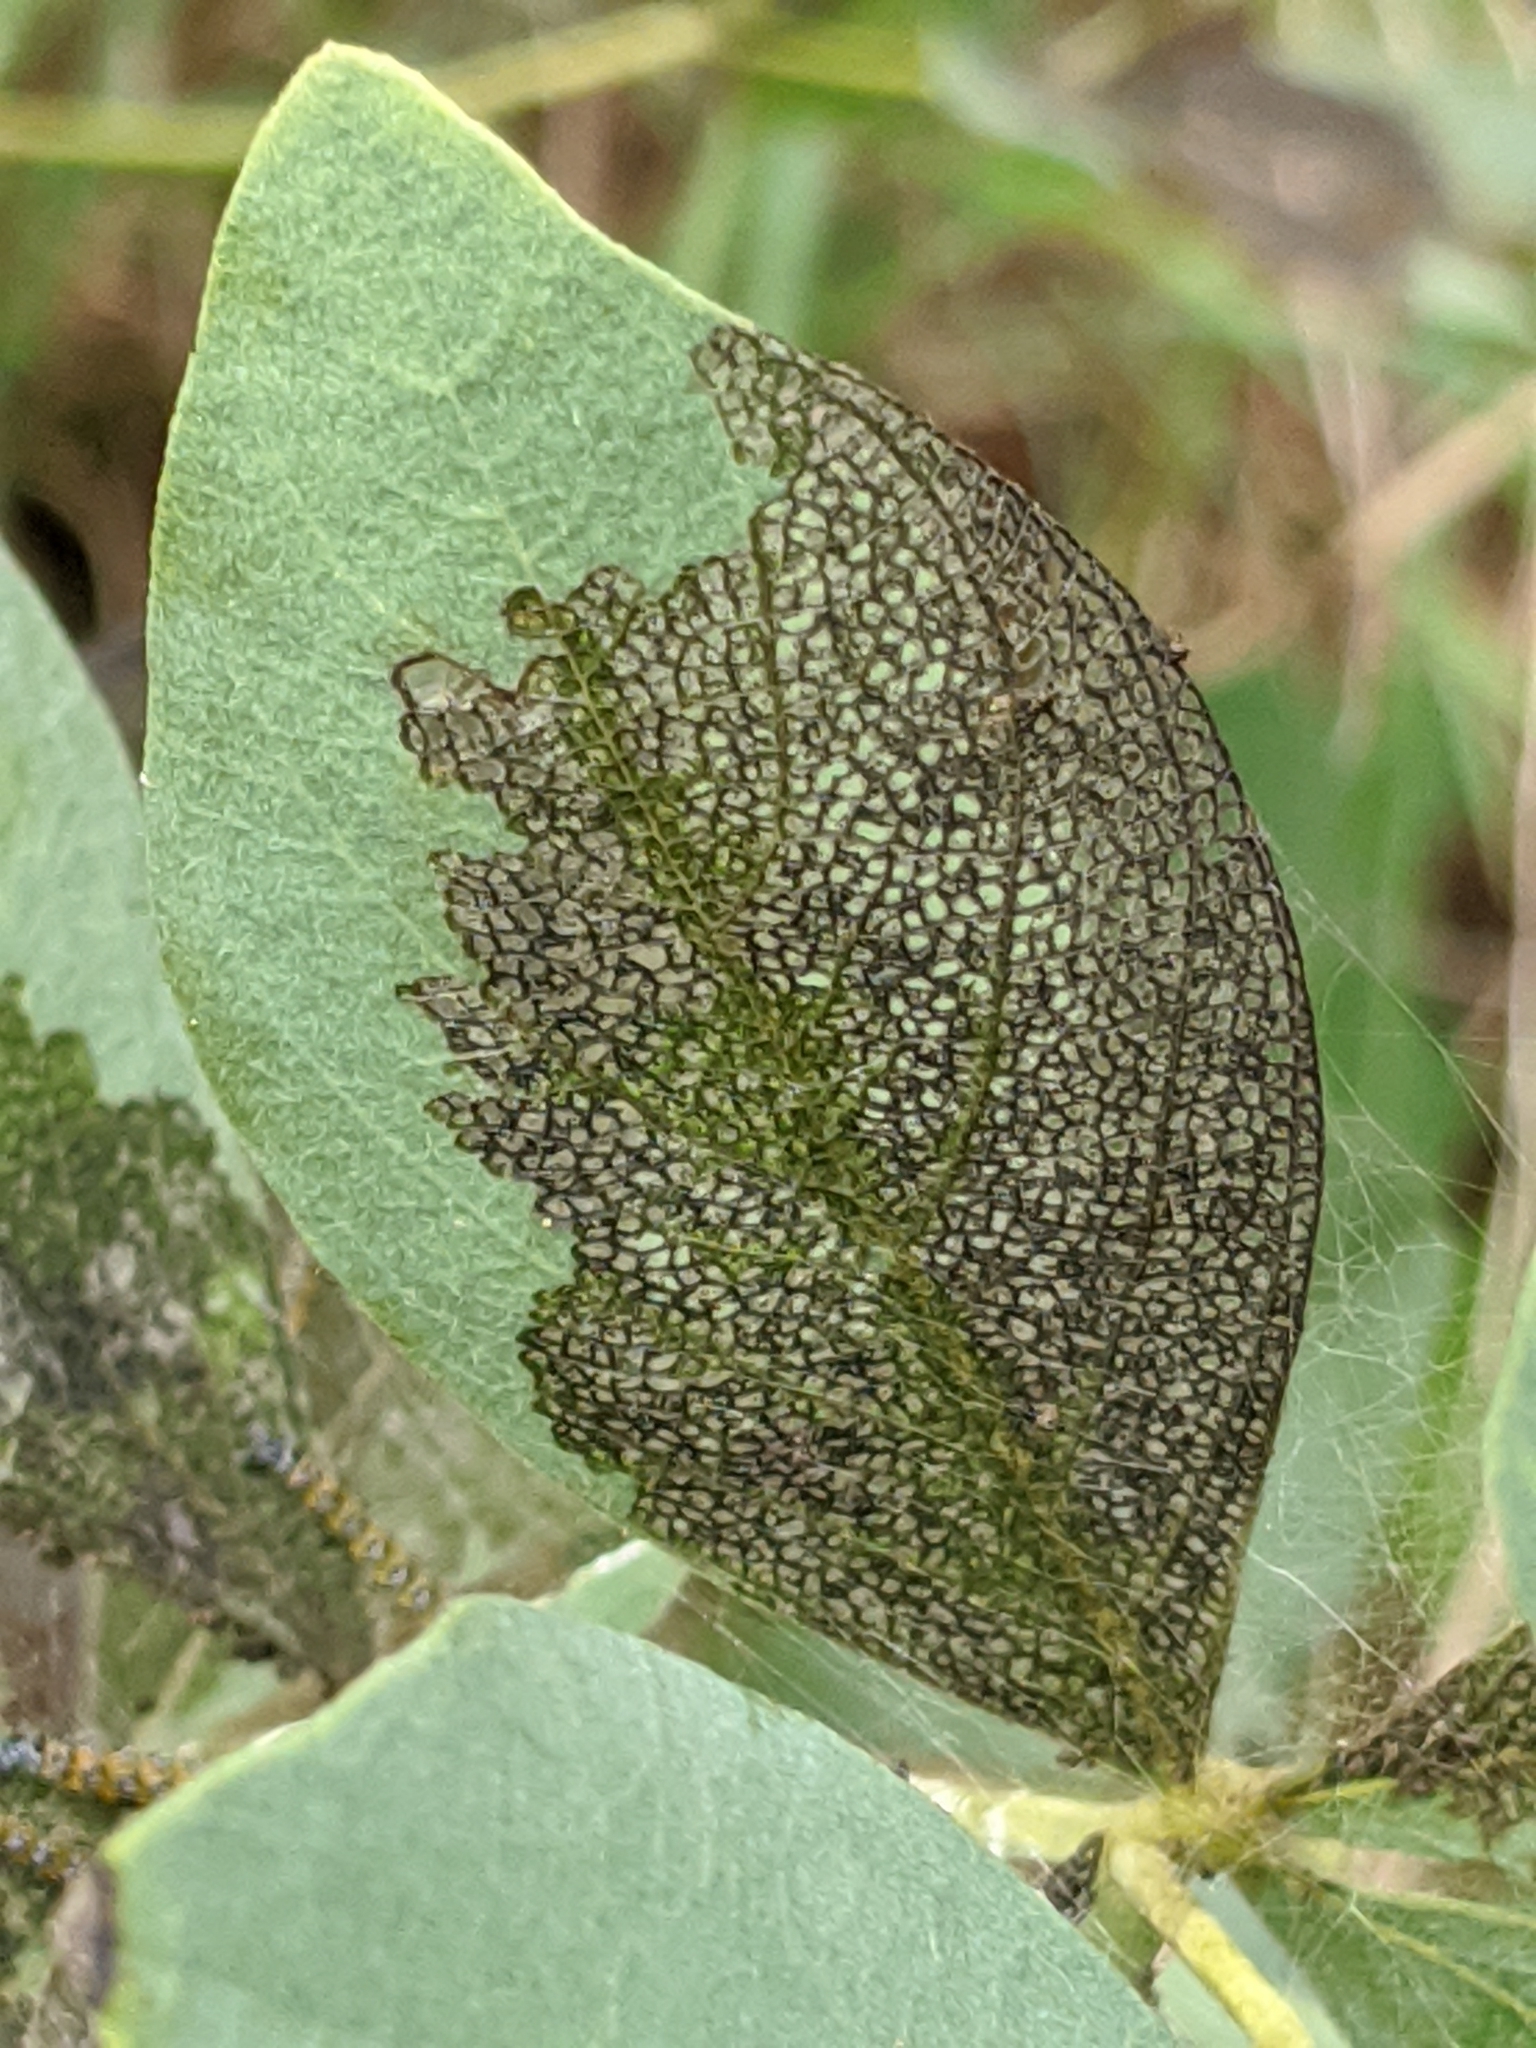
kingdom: Plantae
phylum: Tracheophyta
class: Magnoliopsida
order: Fabales
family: Fabaceae
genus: Baptisia
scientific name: Baptisia bracteata
